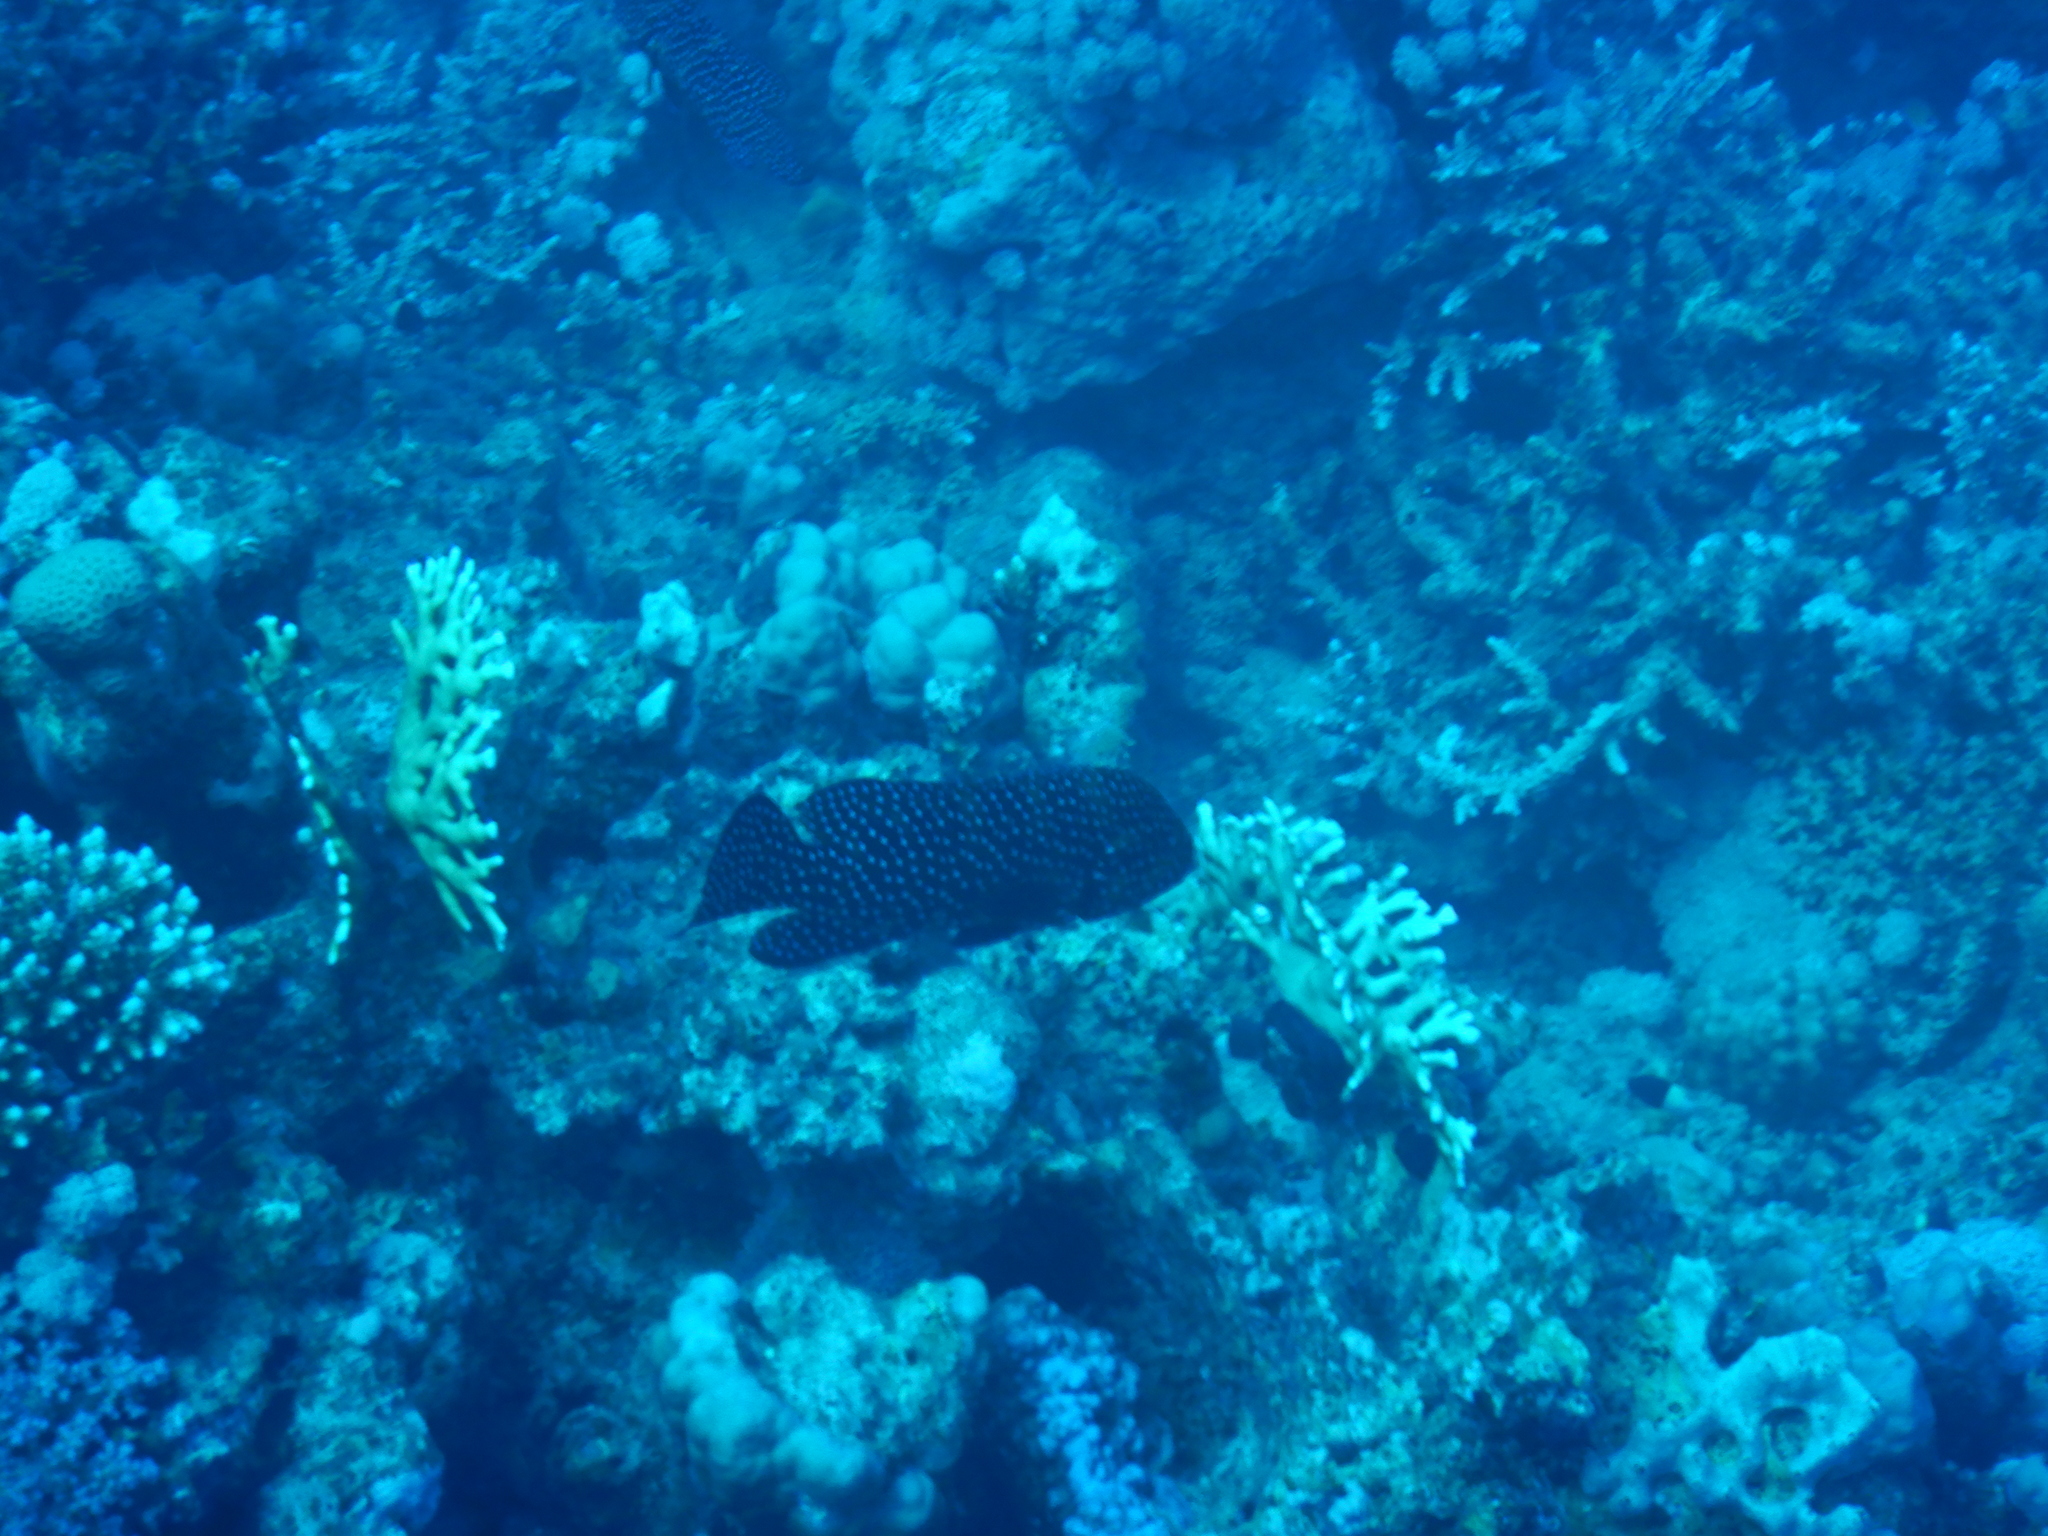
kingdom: Animalia
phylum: Chordata
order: Perciformes
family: Serranidae
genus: Cephalopholis
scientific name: Cephalopholis miniata
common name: Coral hind
